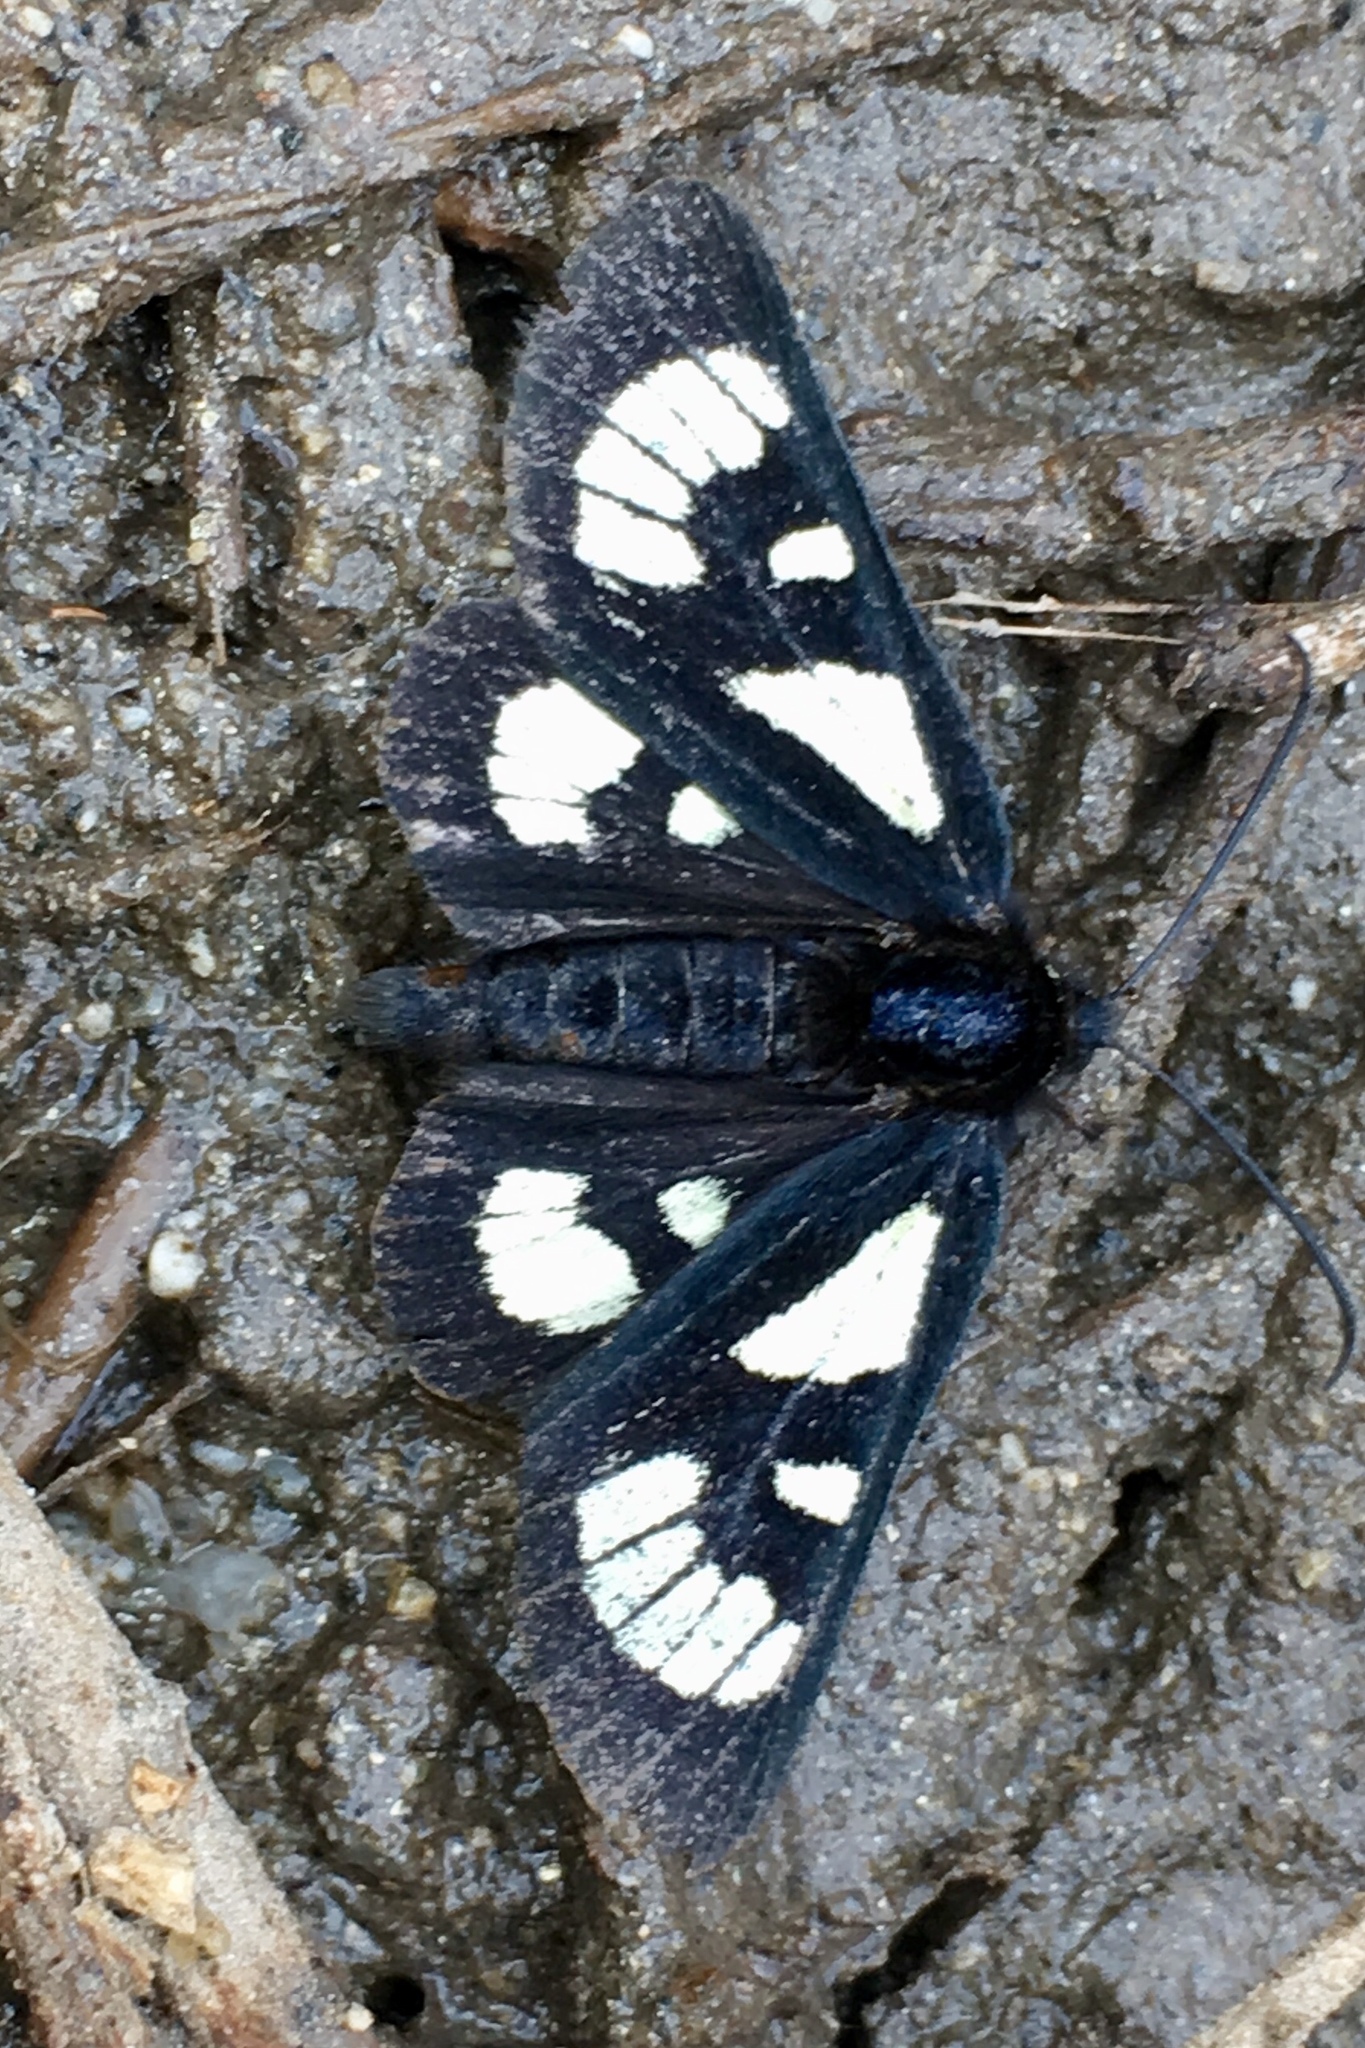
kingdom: Animalia
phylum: Arthropoda
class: Insecta
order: Lepidoptera
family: Noctuidae
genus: Alypia
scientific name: Alypia ridingsii
